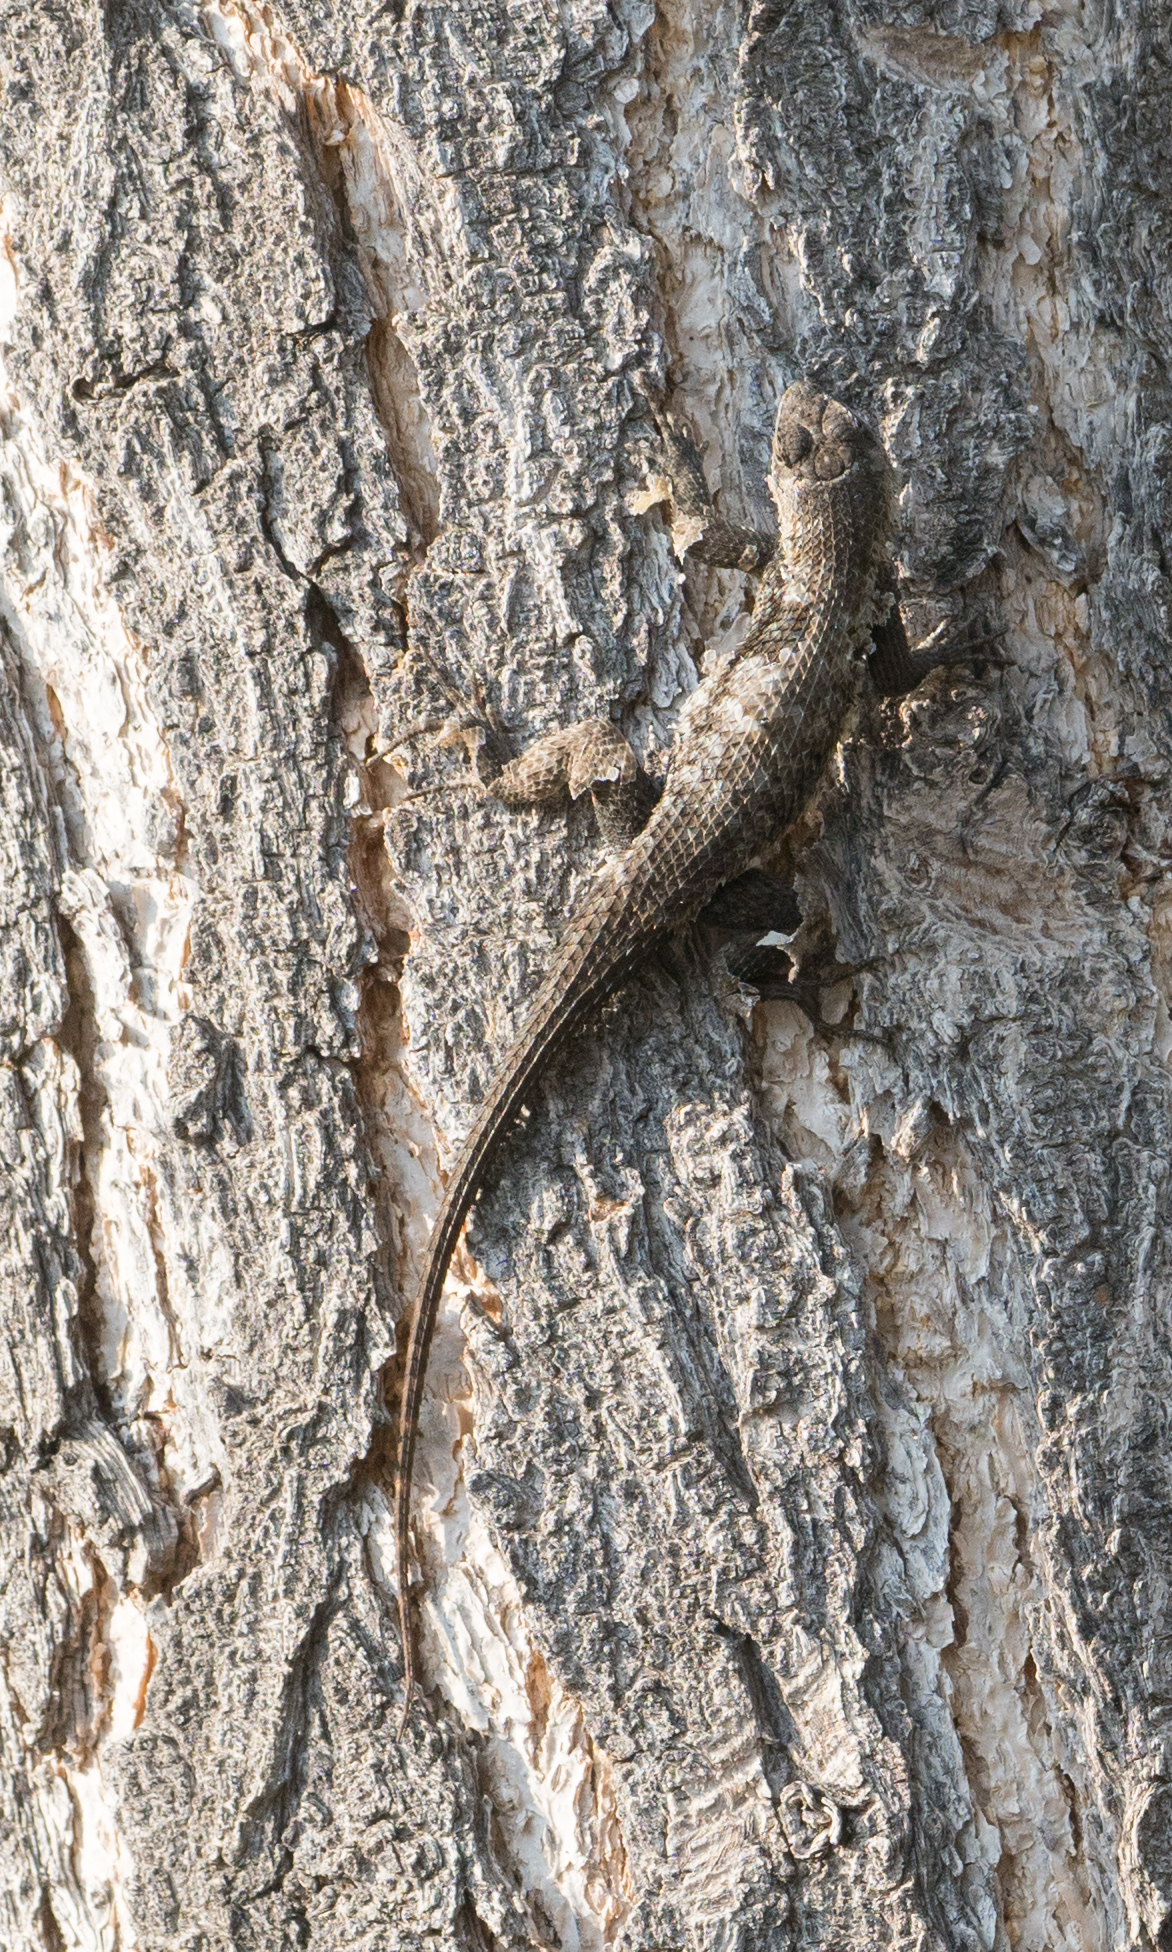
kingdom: Animalia
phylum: Chordata
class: Squamata
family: Phrynosomatidae
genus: Sceloporus
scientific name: Sceloporus occidentalis
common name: Western fence lizard
